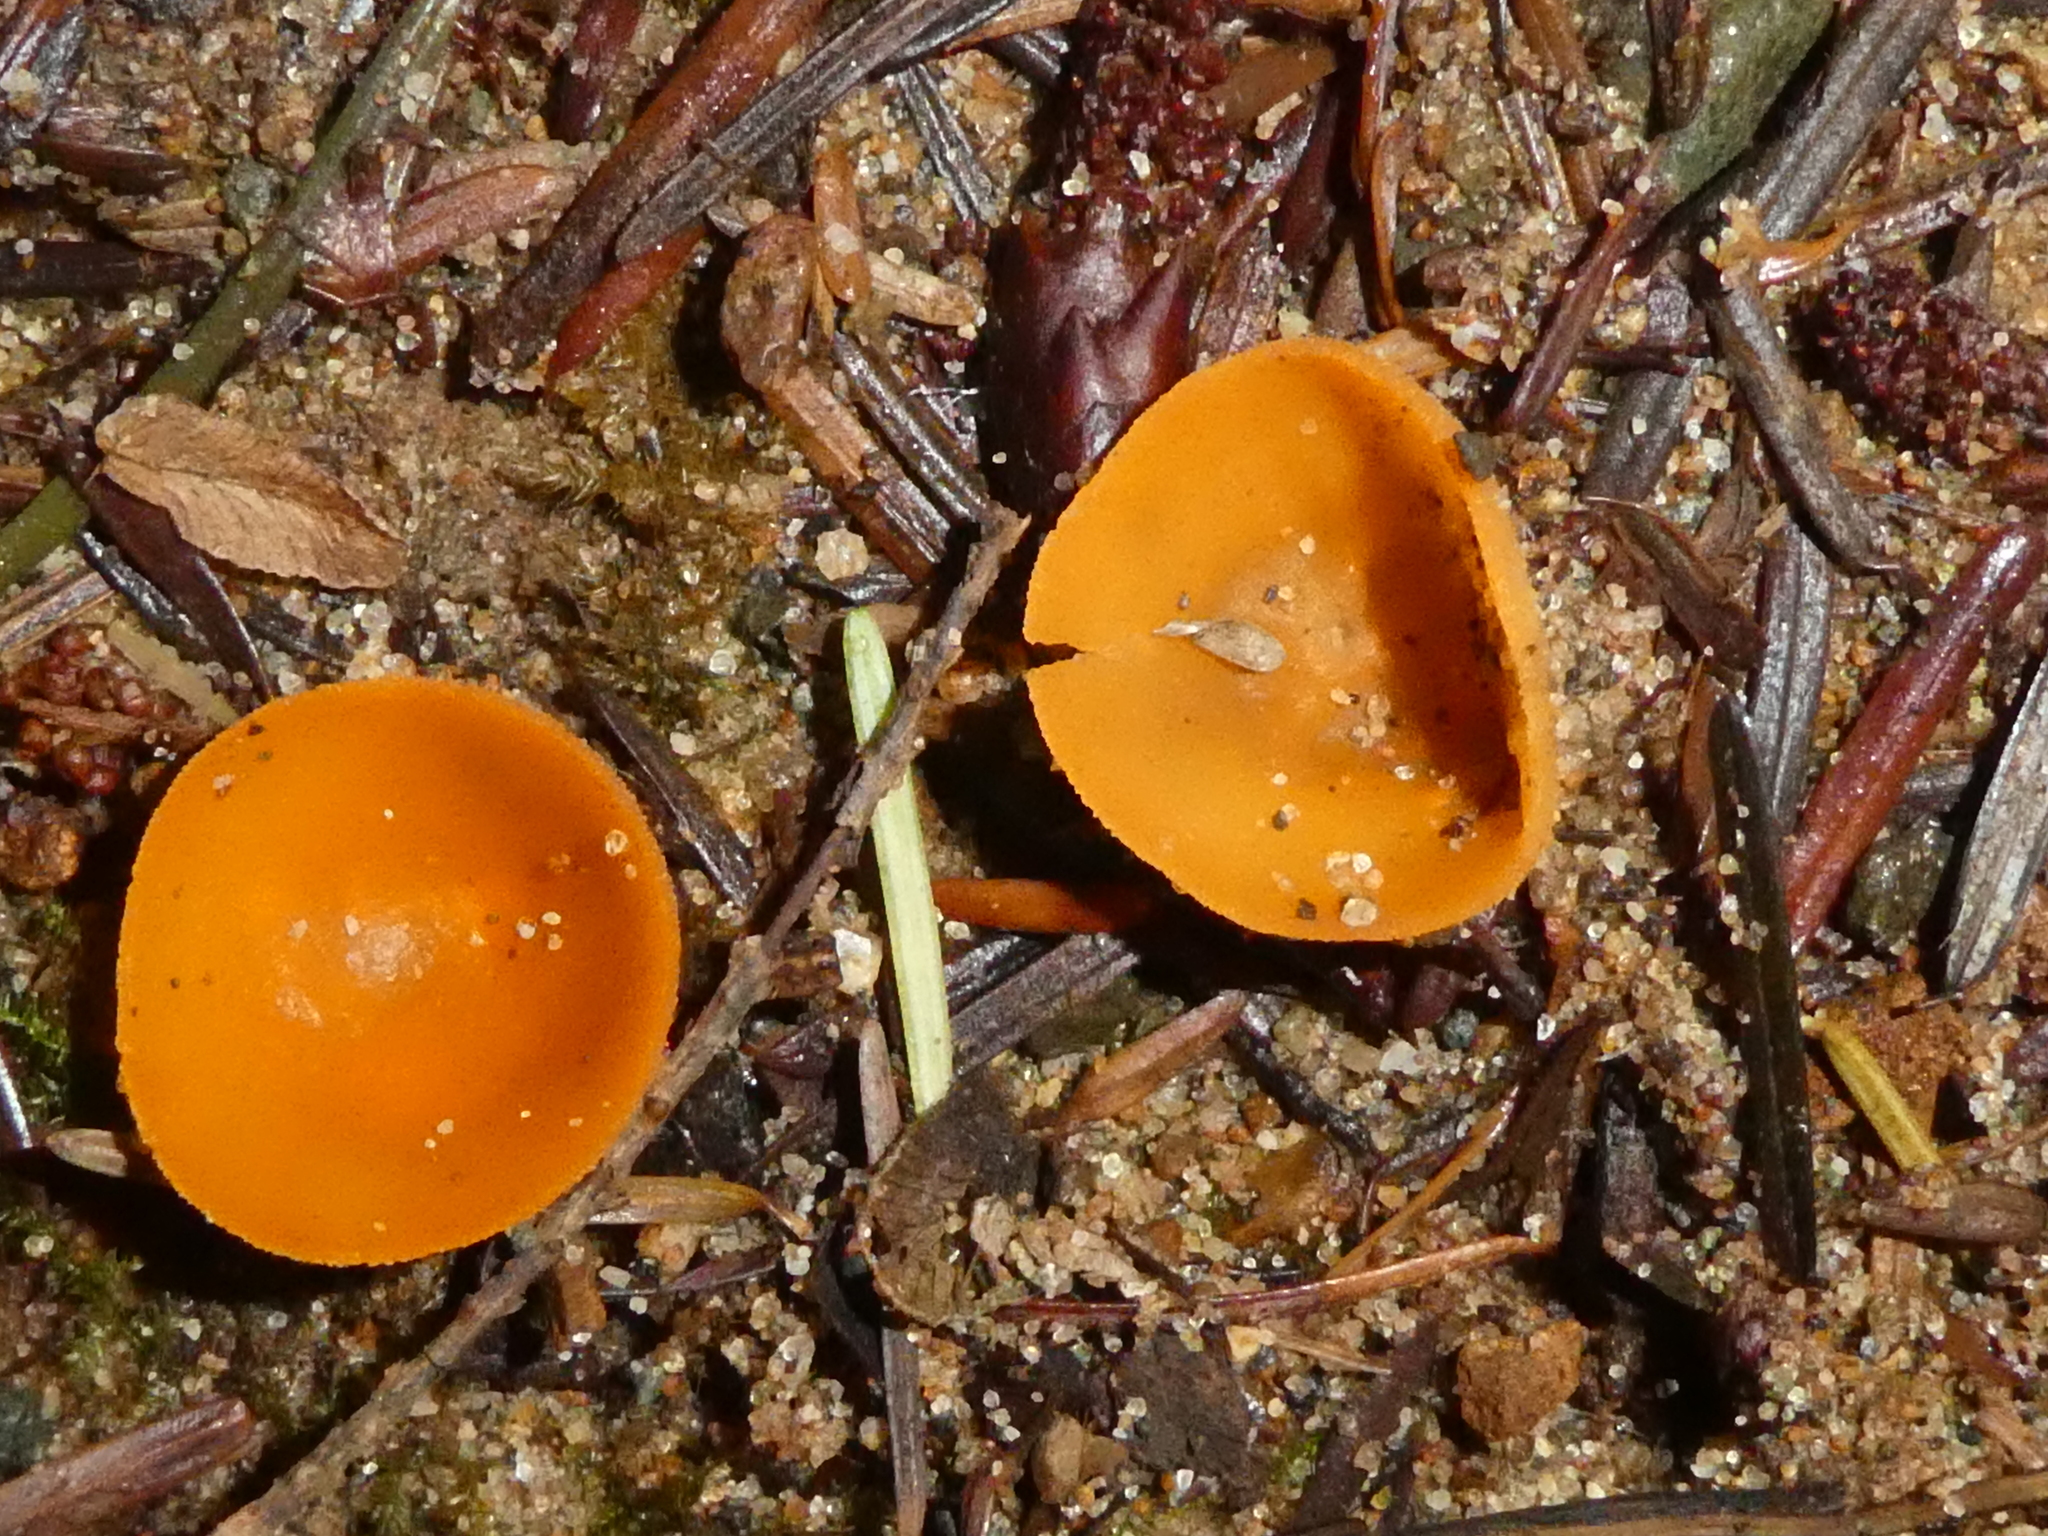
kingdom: Fungi
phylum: Ascomycota
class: Pezizomycetes
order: Pezizales
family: Pyronemataceae
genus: Aleuria
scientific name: Aleuria aurantia
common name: Orange peel fungus
